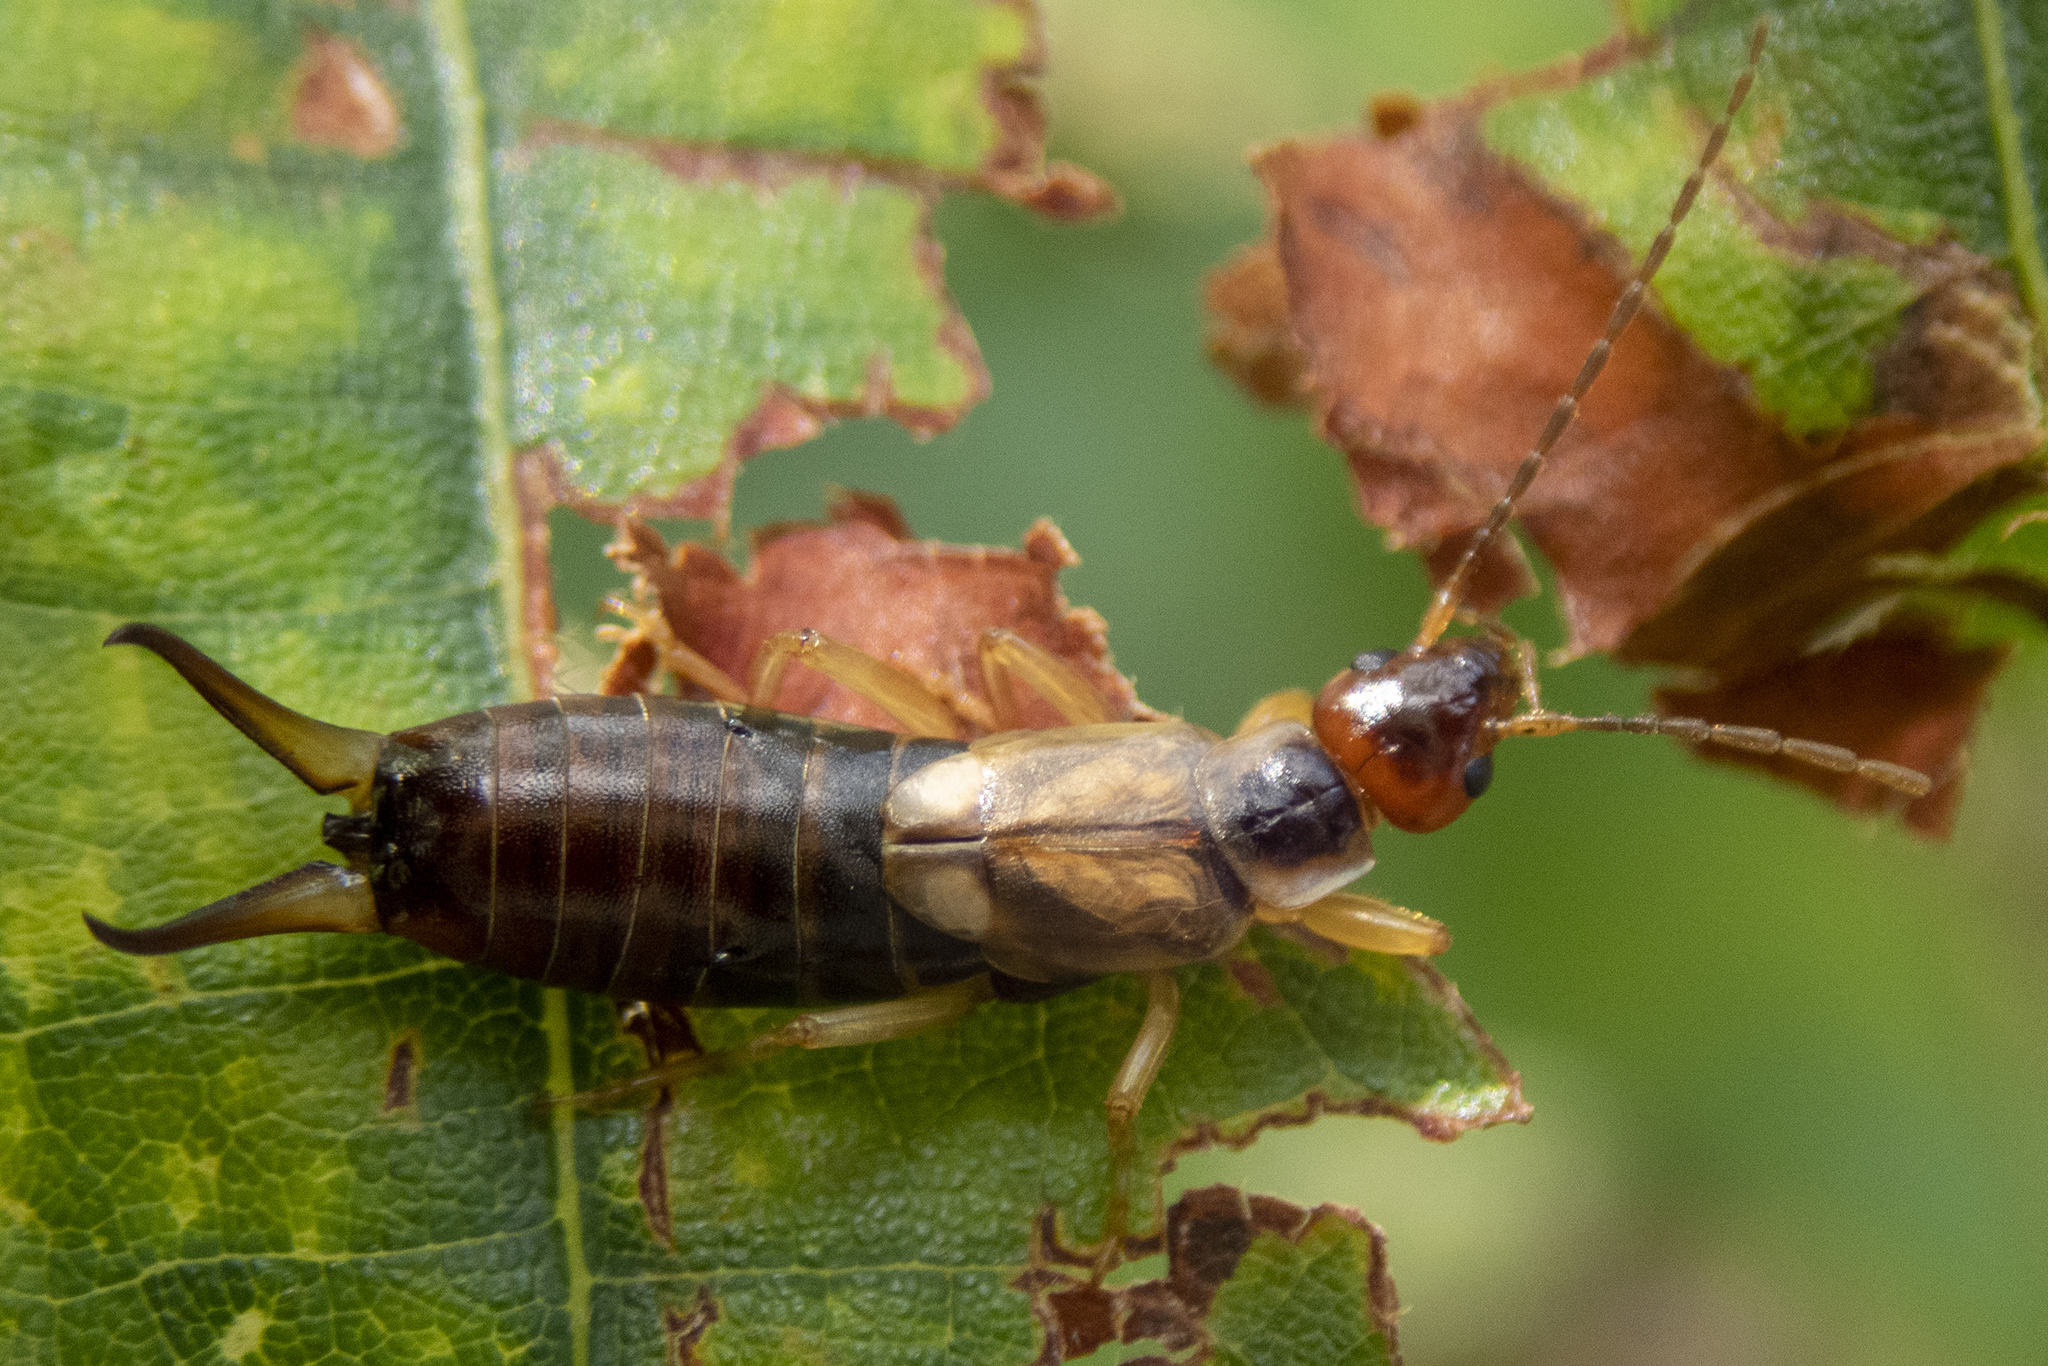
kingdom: Animalia
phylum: Arthropoda
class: Insecta
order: Dermaptera
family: Forficulidae
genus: Forficula
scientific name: Forficula
